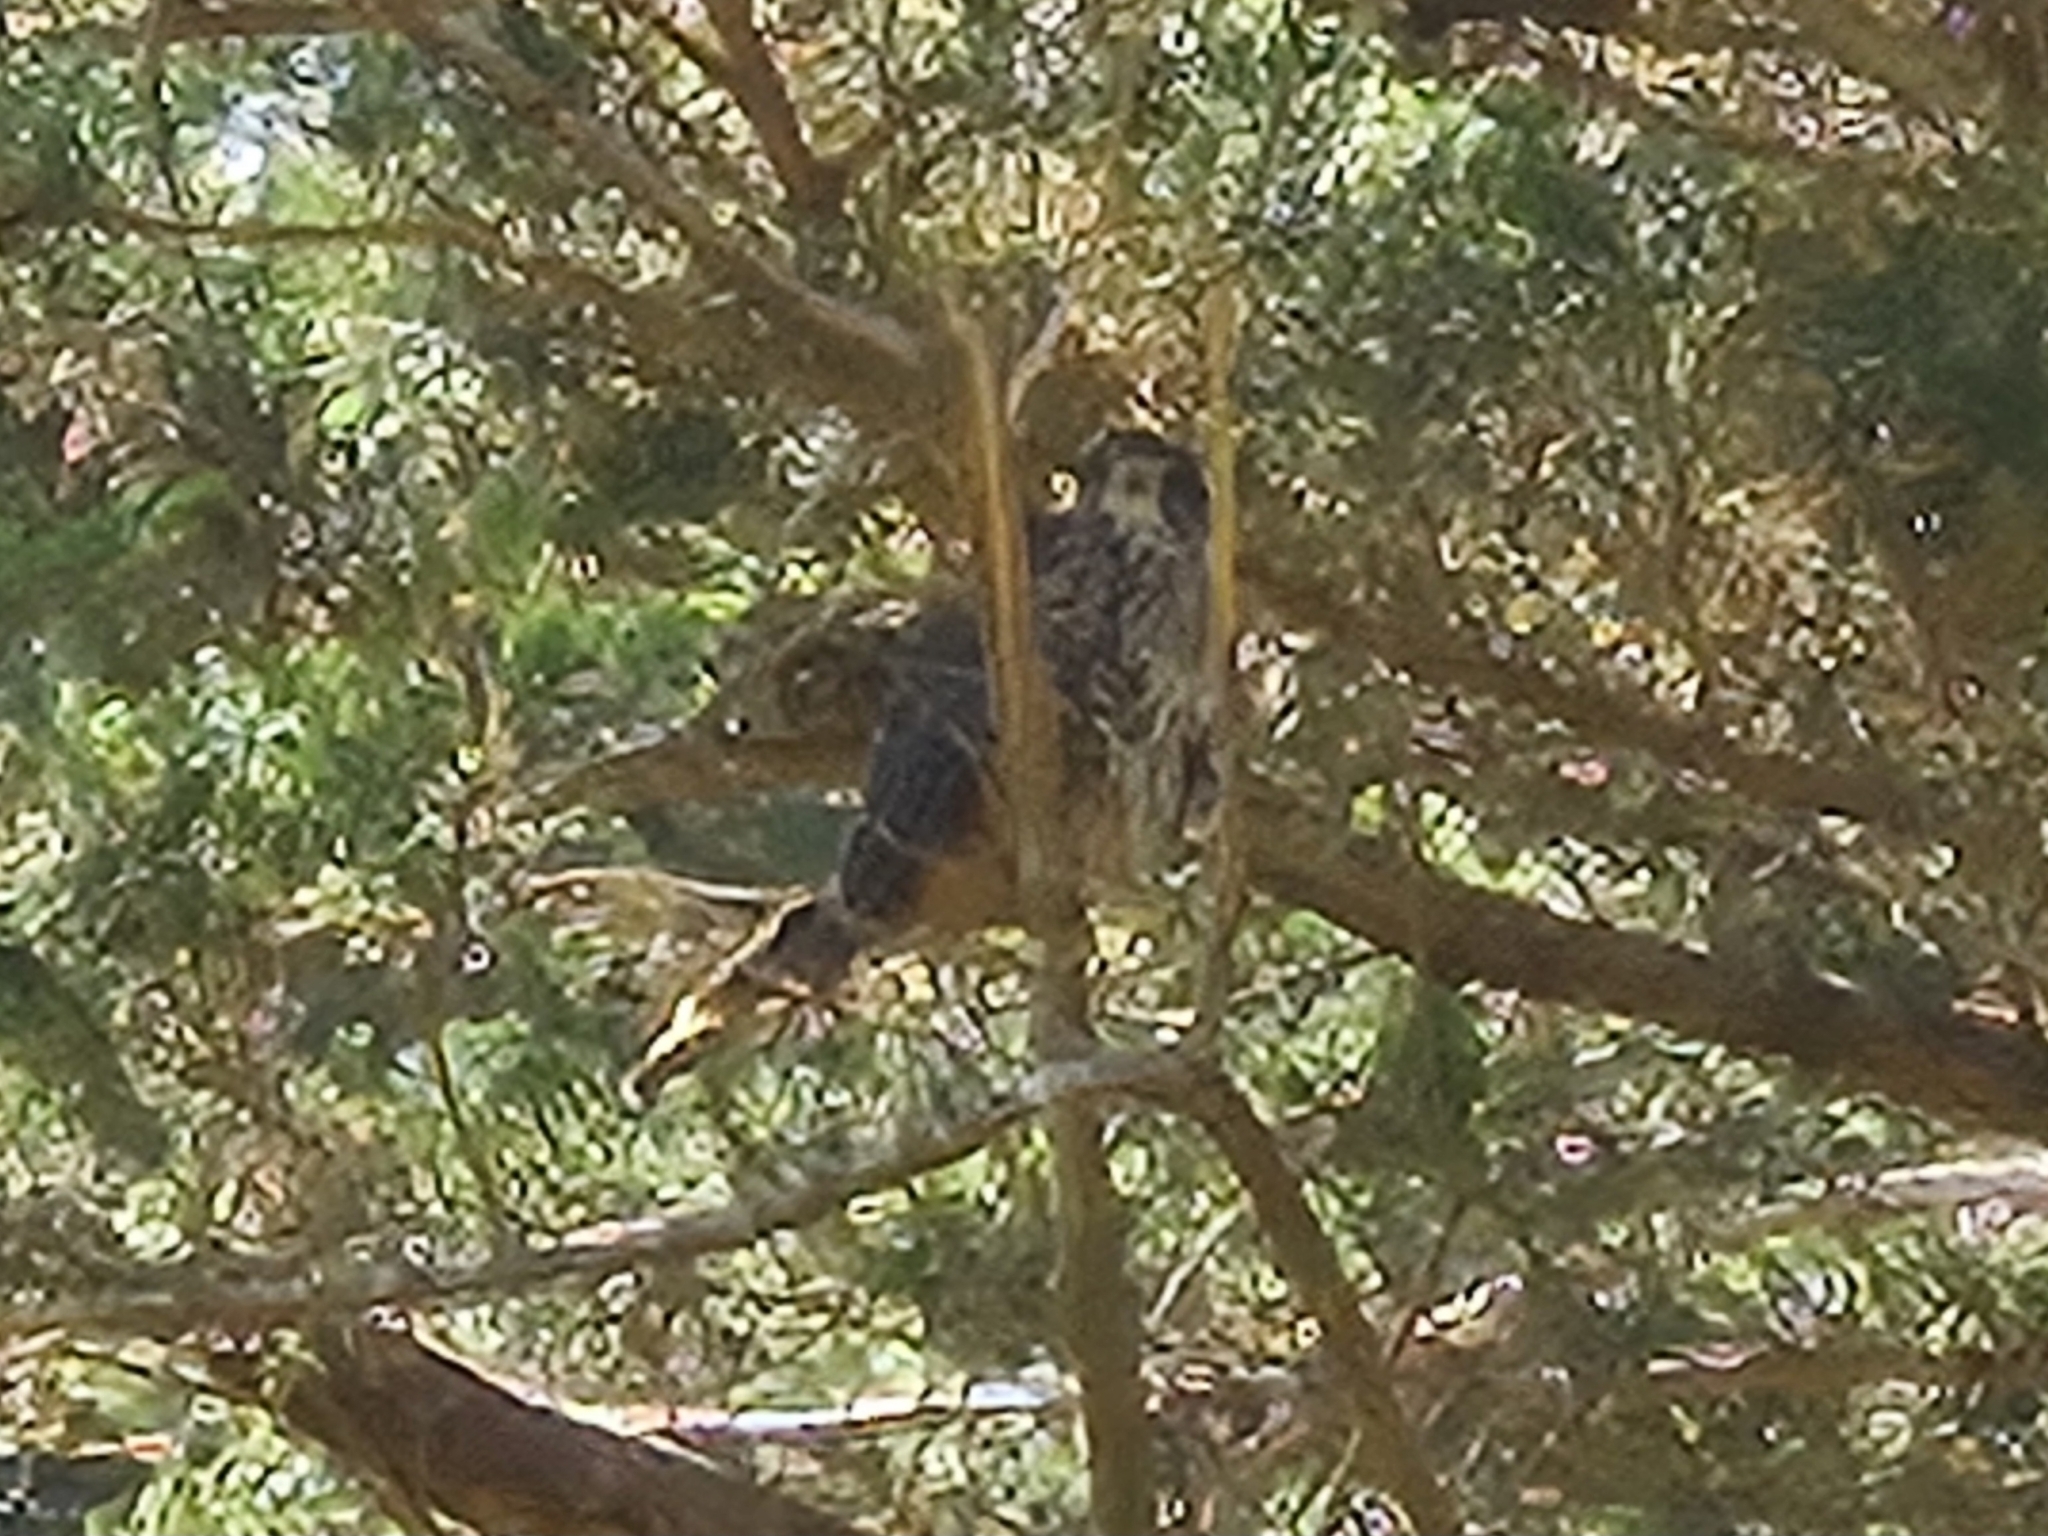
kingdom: Animalia
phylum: Chordata
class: Aves
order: Falconiformes
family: Falconidae
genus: Falco
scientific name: Falco novaeseelandiae
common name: New zealand falcon
